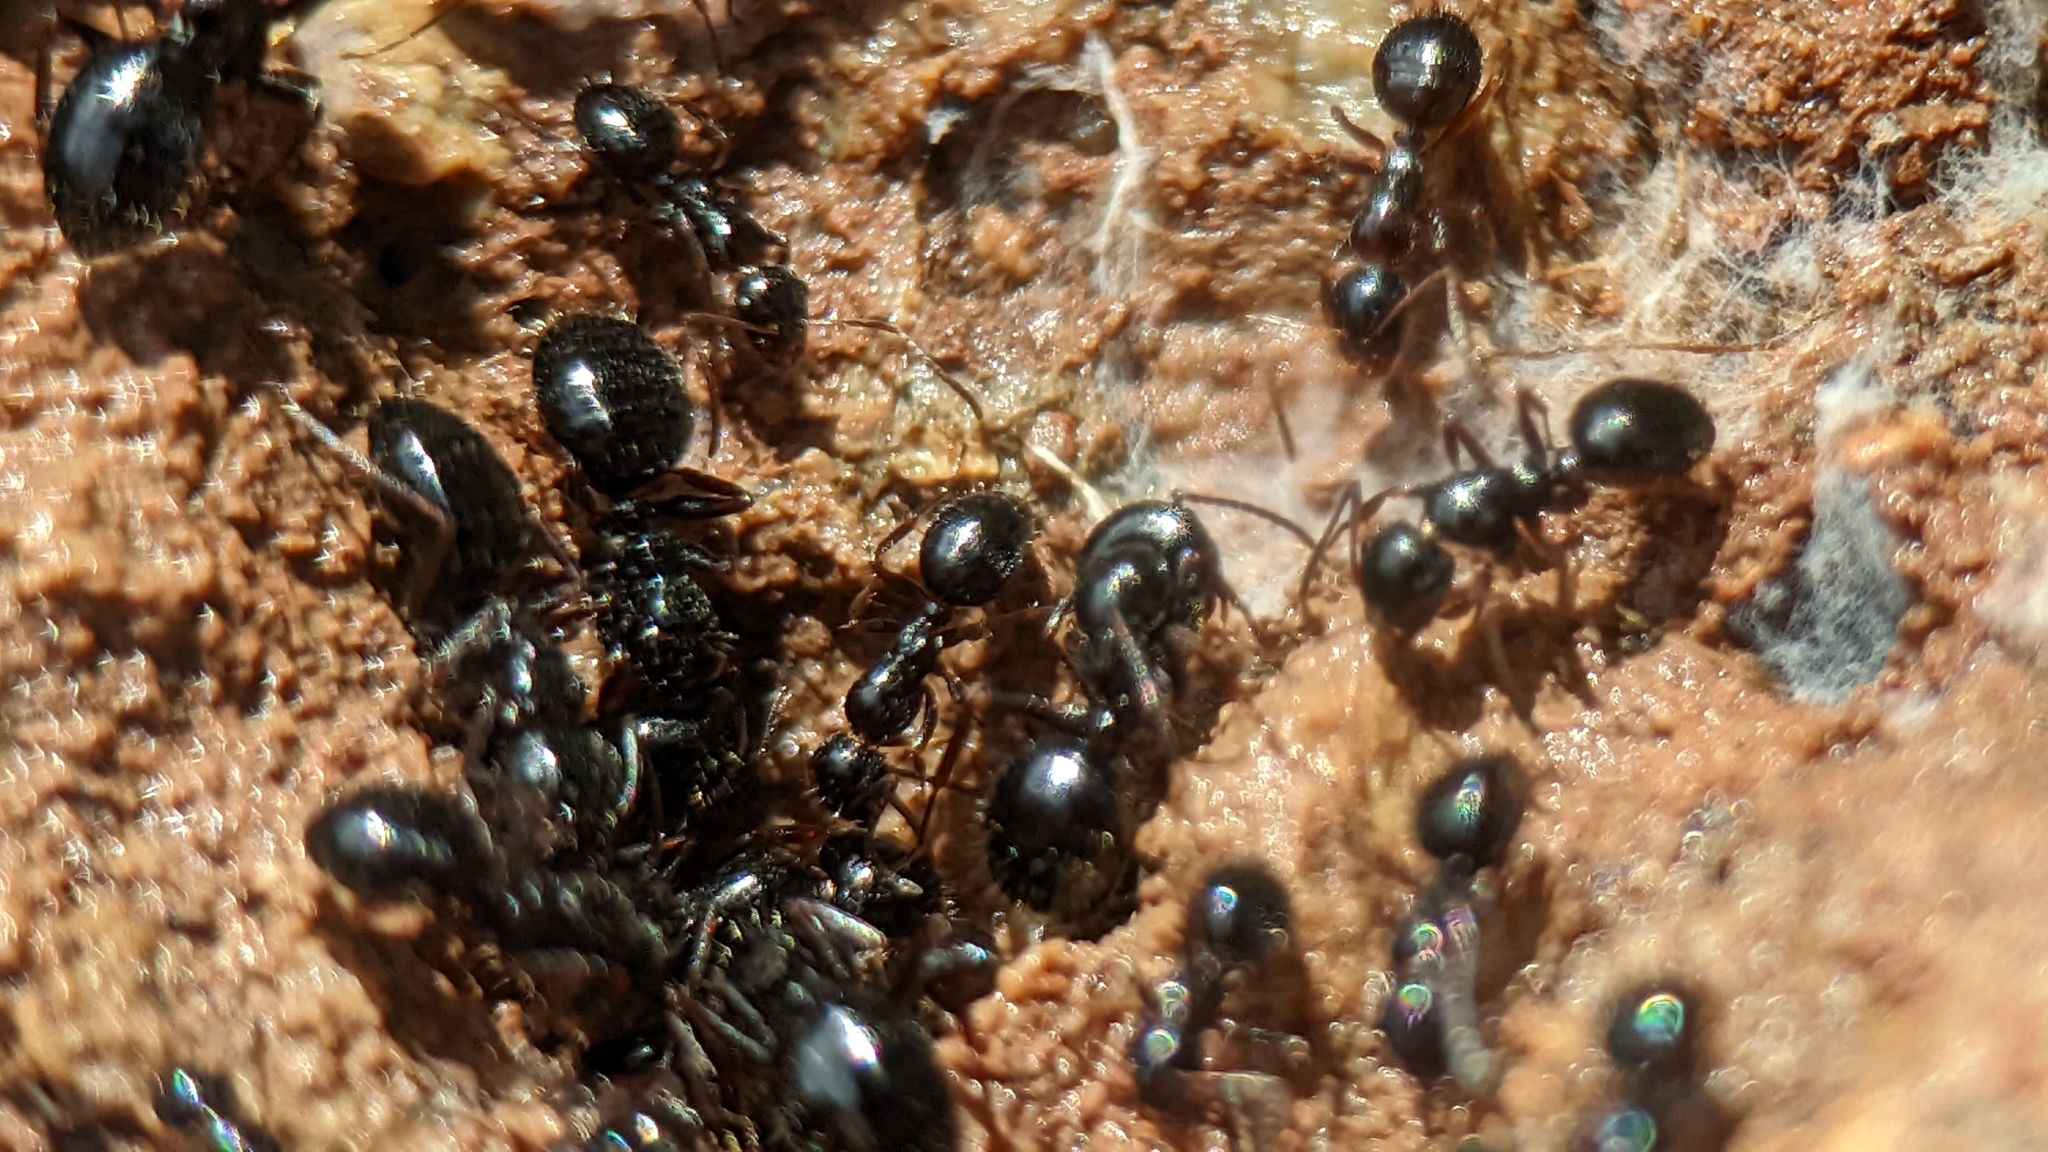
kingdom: Animalia
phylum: Arthropoda
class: Insecta
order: Hymenoptera
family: Formicidae
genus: Camponotus
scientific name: Camponotus piceus
